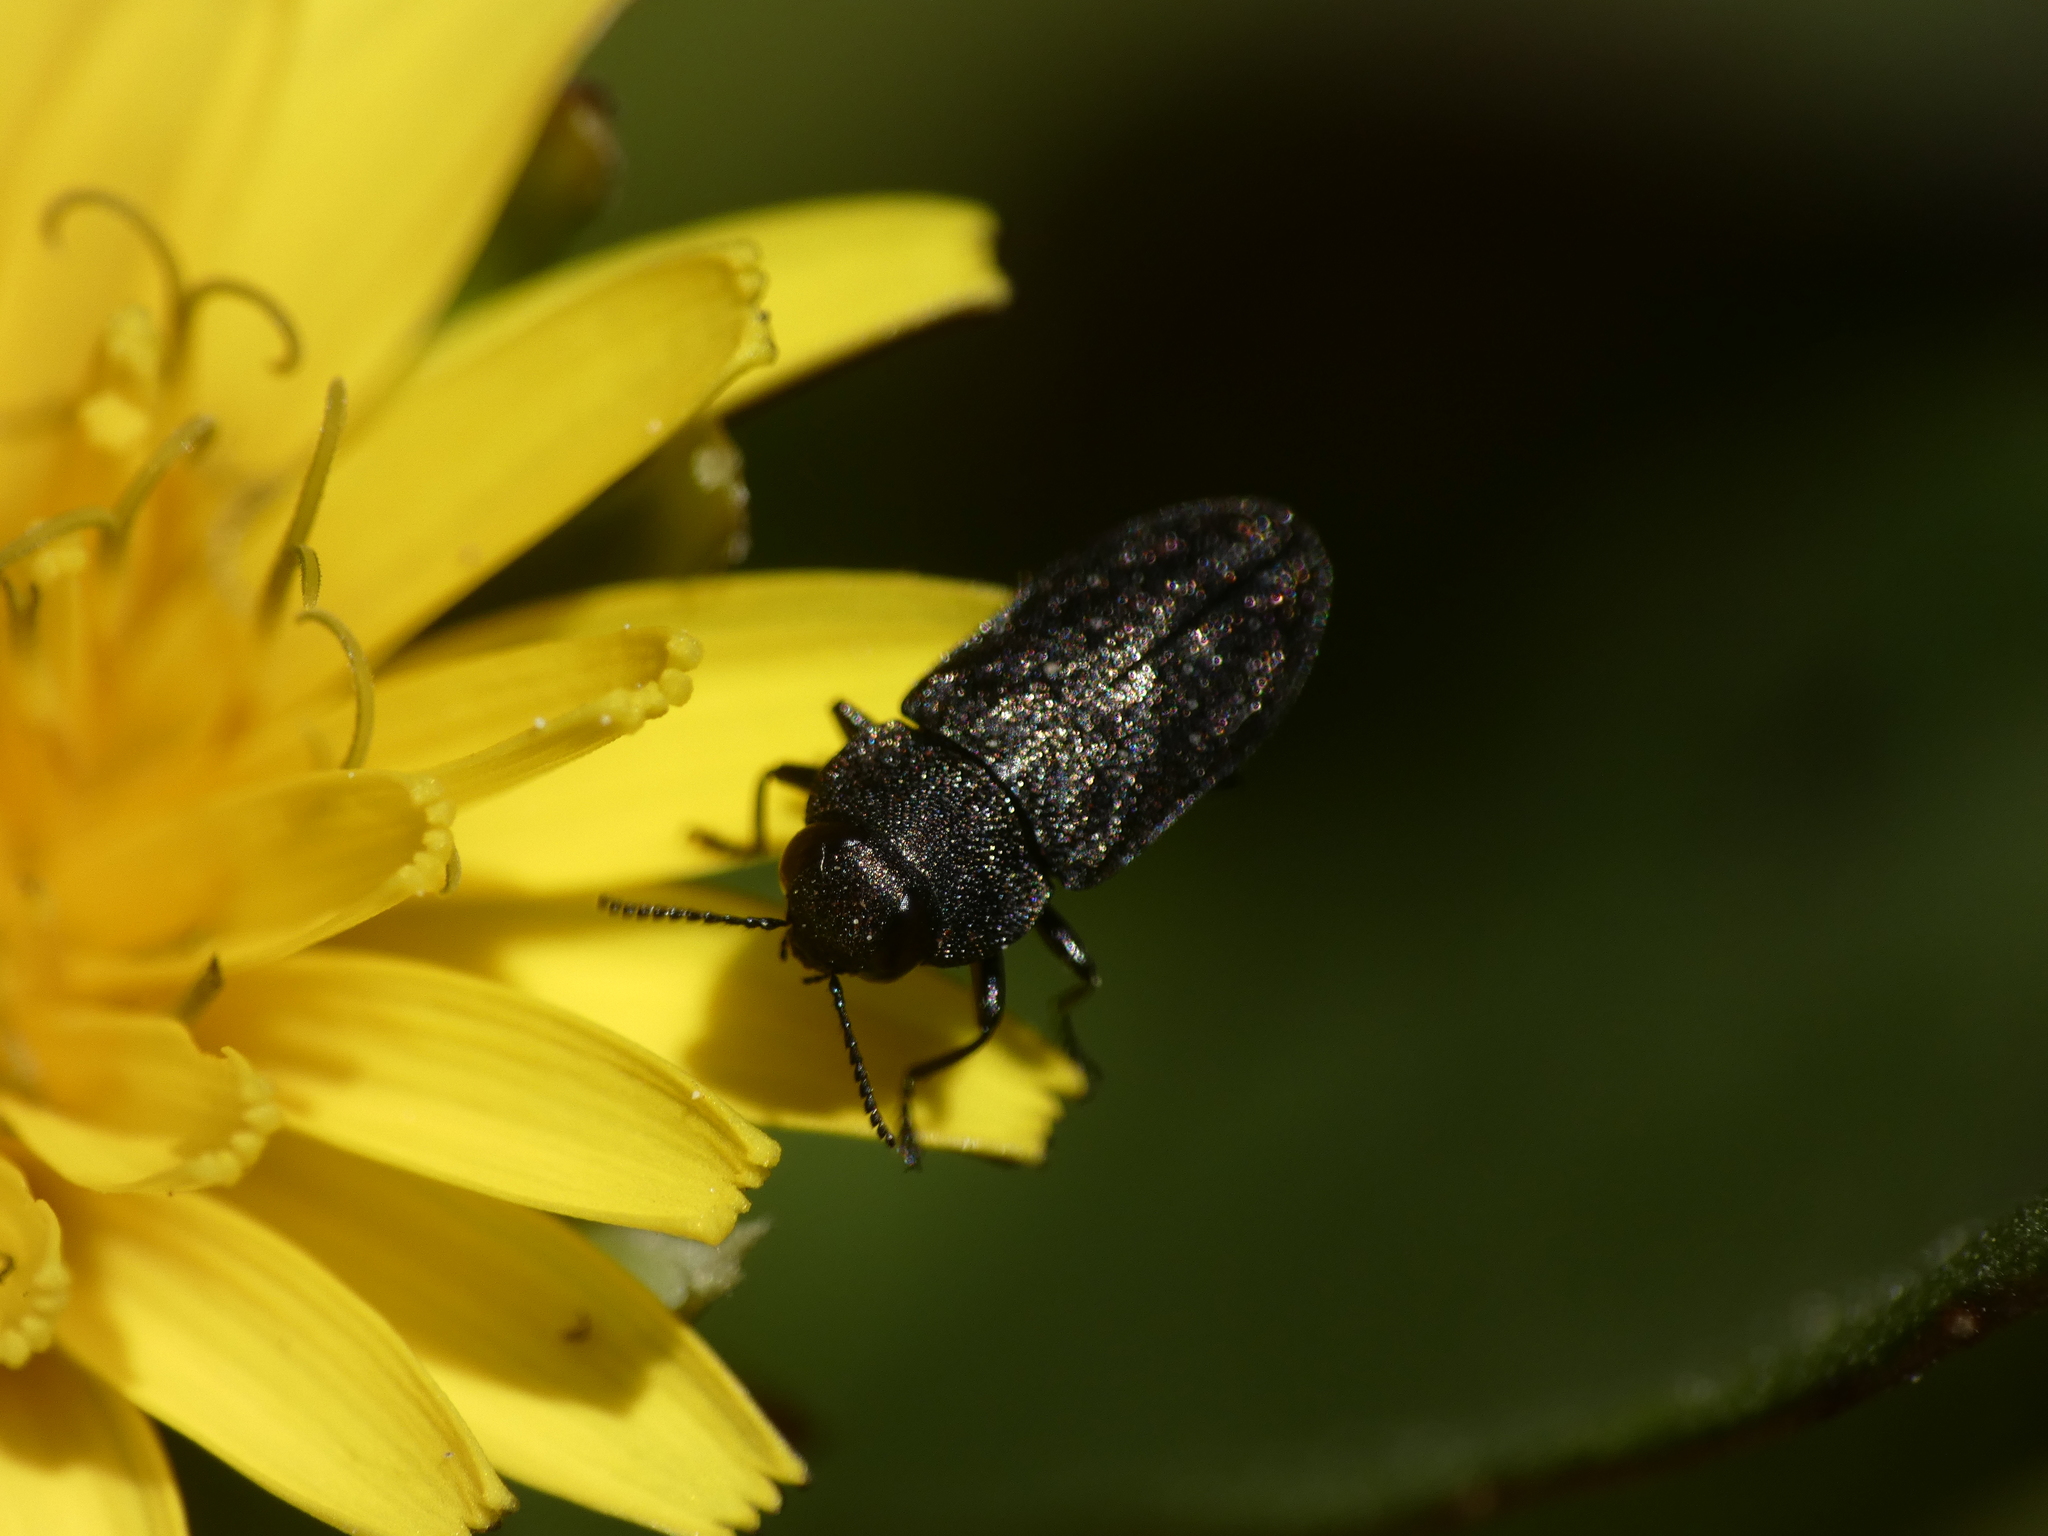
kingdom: Animalia
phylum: Arthropoda
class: Insecta
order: Coleoptera
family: Buprestidae
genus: Anthaxia
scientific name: Anthaxia sepulchralis
